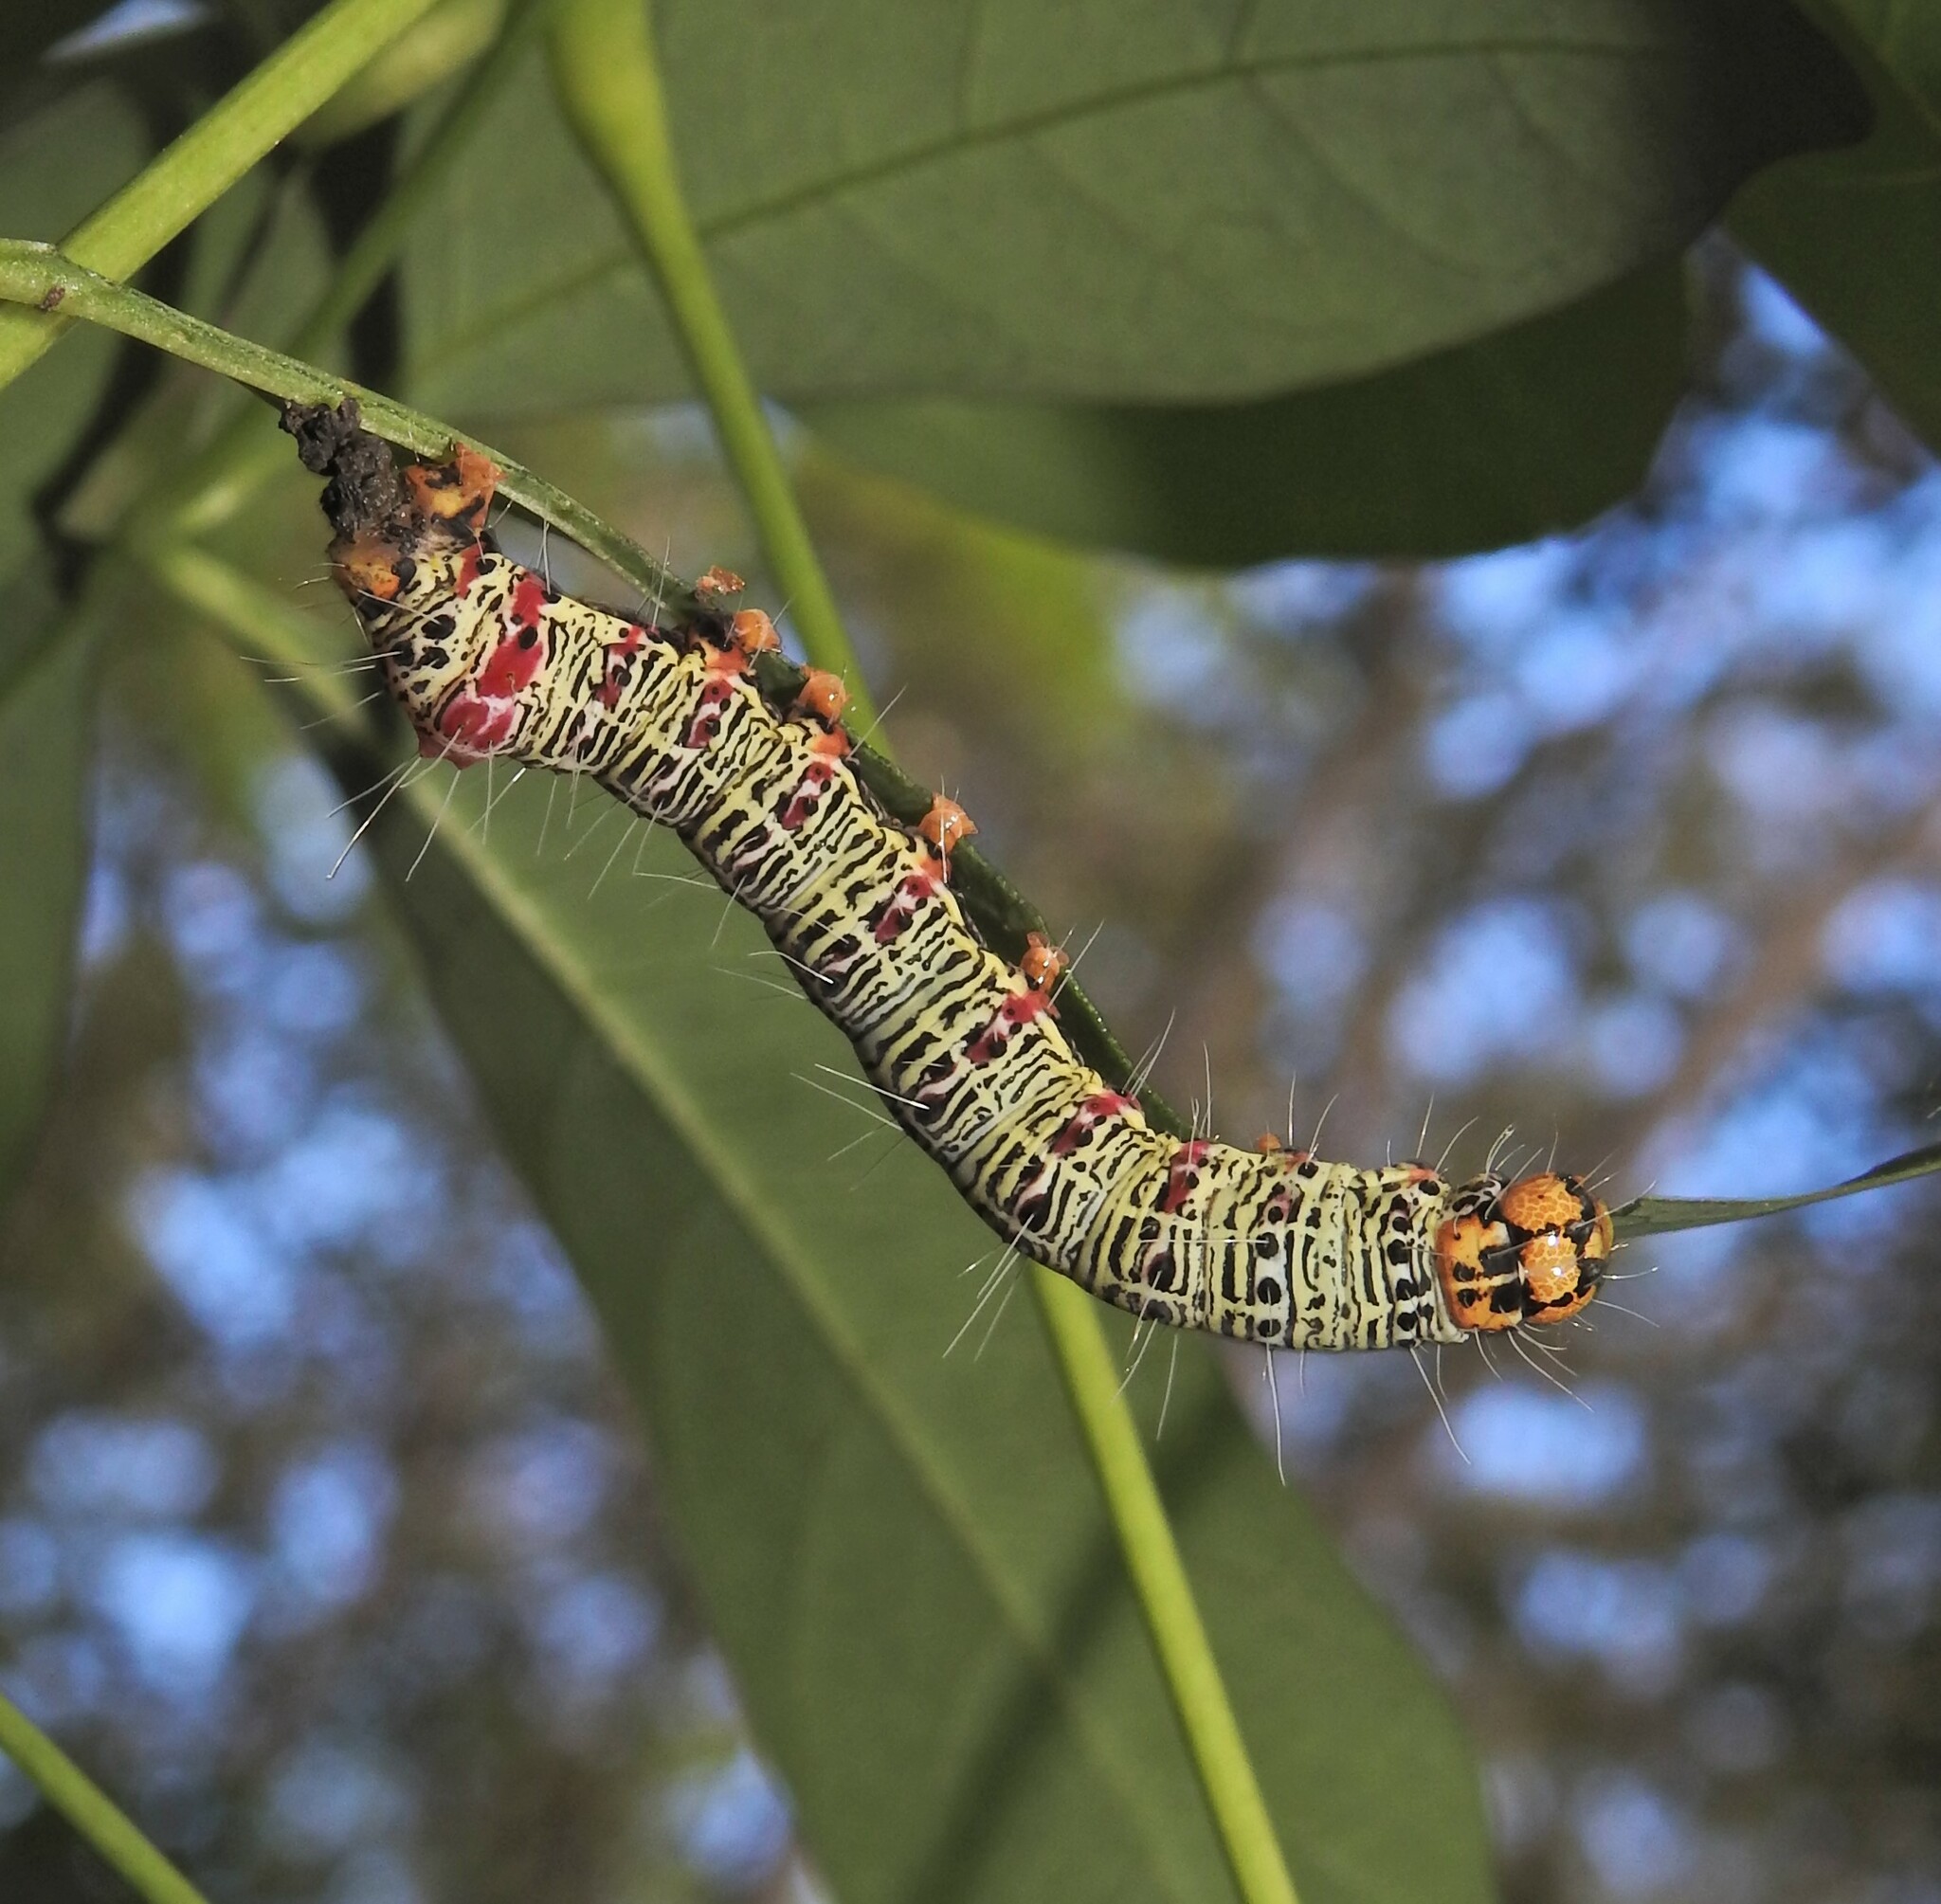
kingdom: Animalia
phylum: Arthropoda
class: Insecta
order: Lepidoptera
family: Noctuidae
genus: Phalaenoides
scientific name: Phalaenoides glycinae
